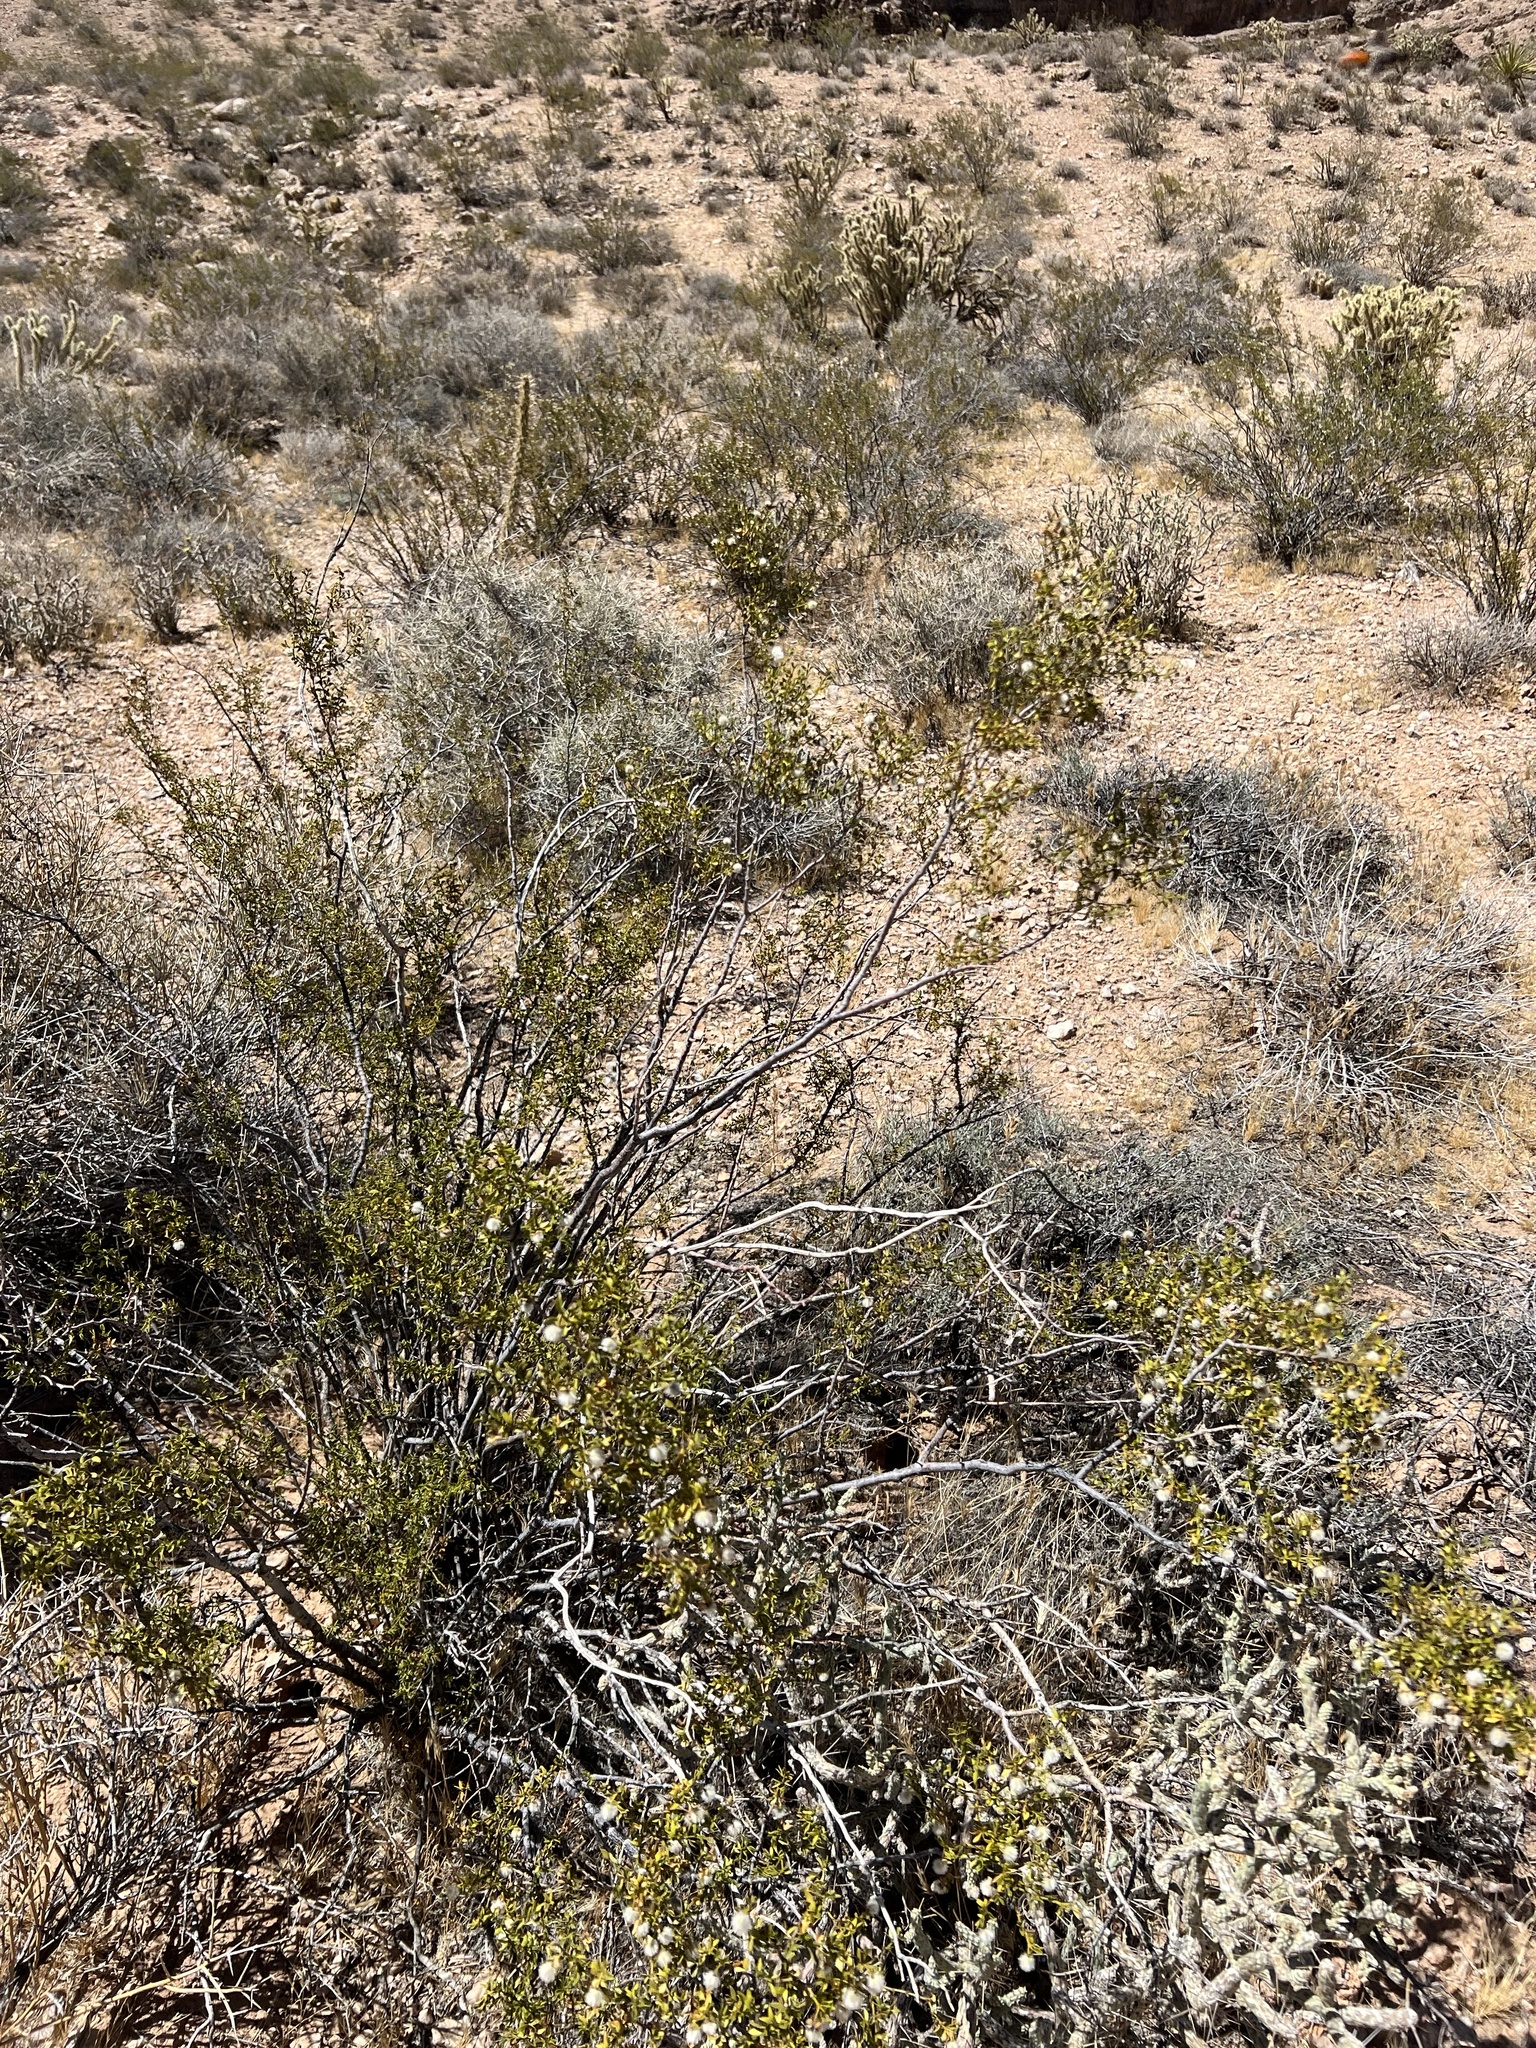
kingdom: Plantae
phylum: Tracheophyta
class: Magnoliopsida
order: Zygophyllales
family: Zygophyllaceae
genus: Larrea
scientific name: Larrea tridentata
